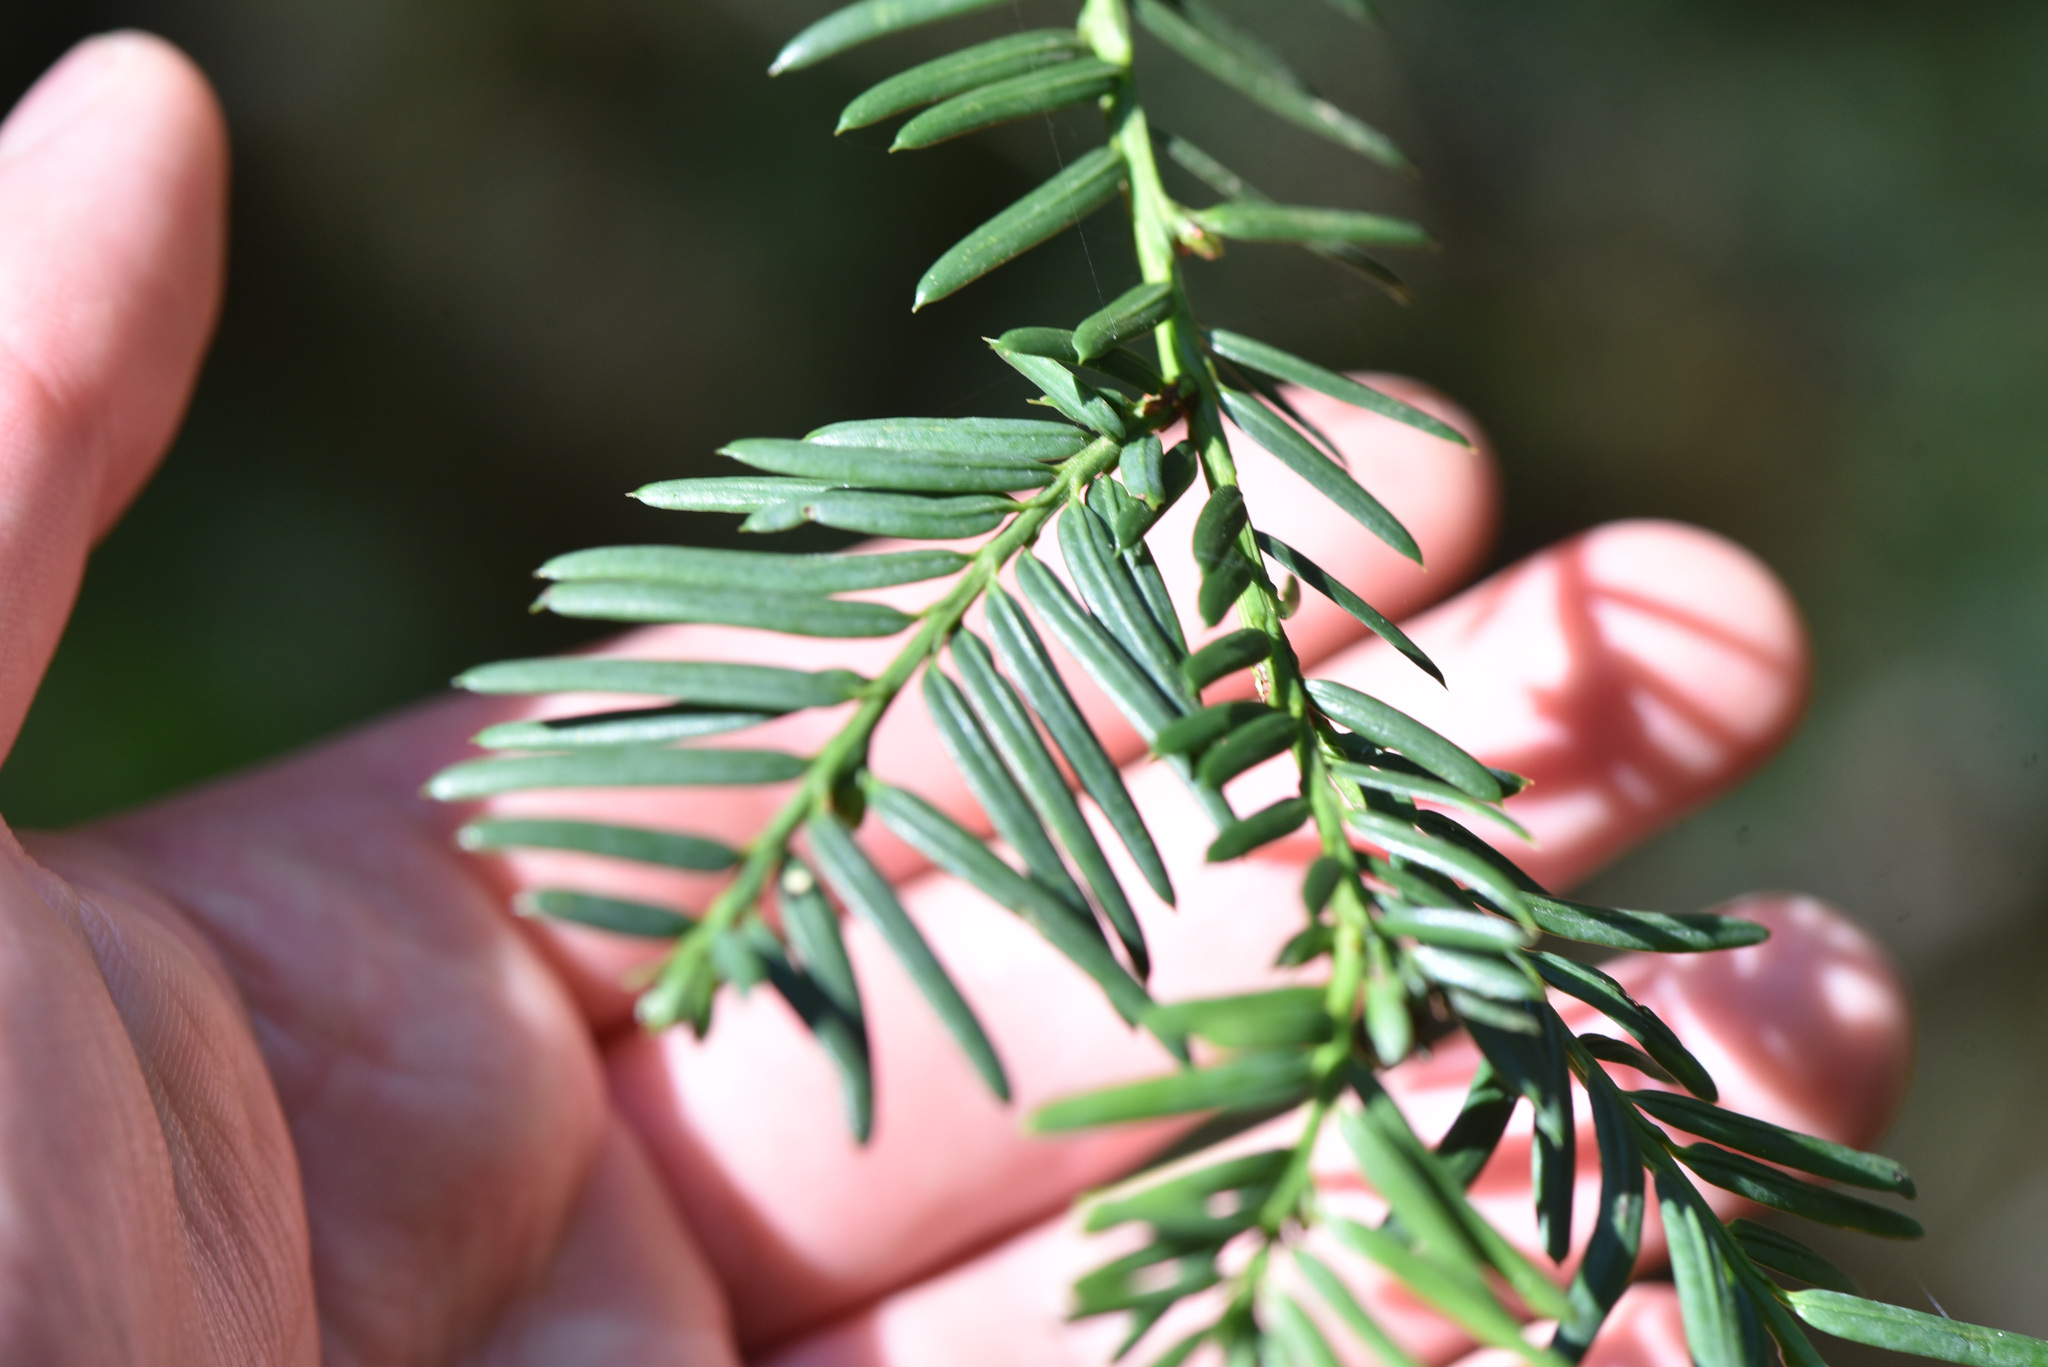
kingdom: Plantae
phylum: Tracheophyta
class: Pinopsida
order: Pinales
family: Taxaceae
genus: Taxus
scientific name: Taxus brevifolia
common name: Pacific yew
